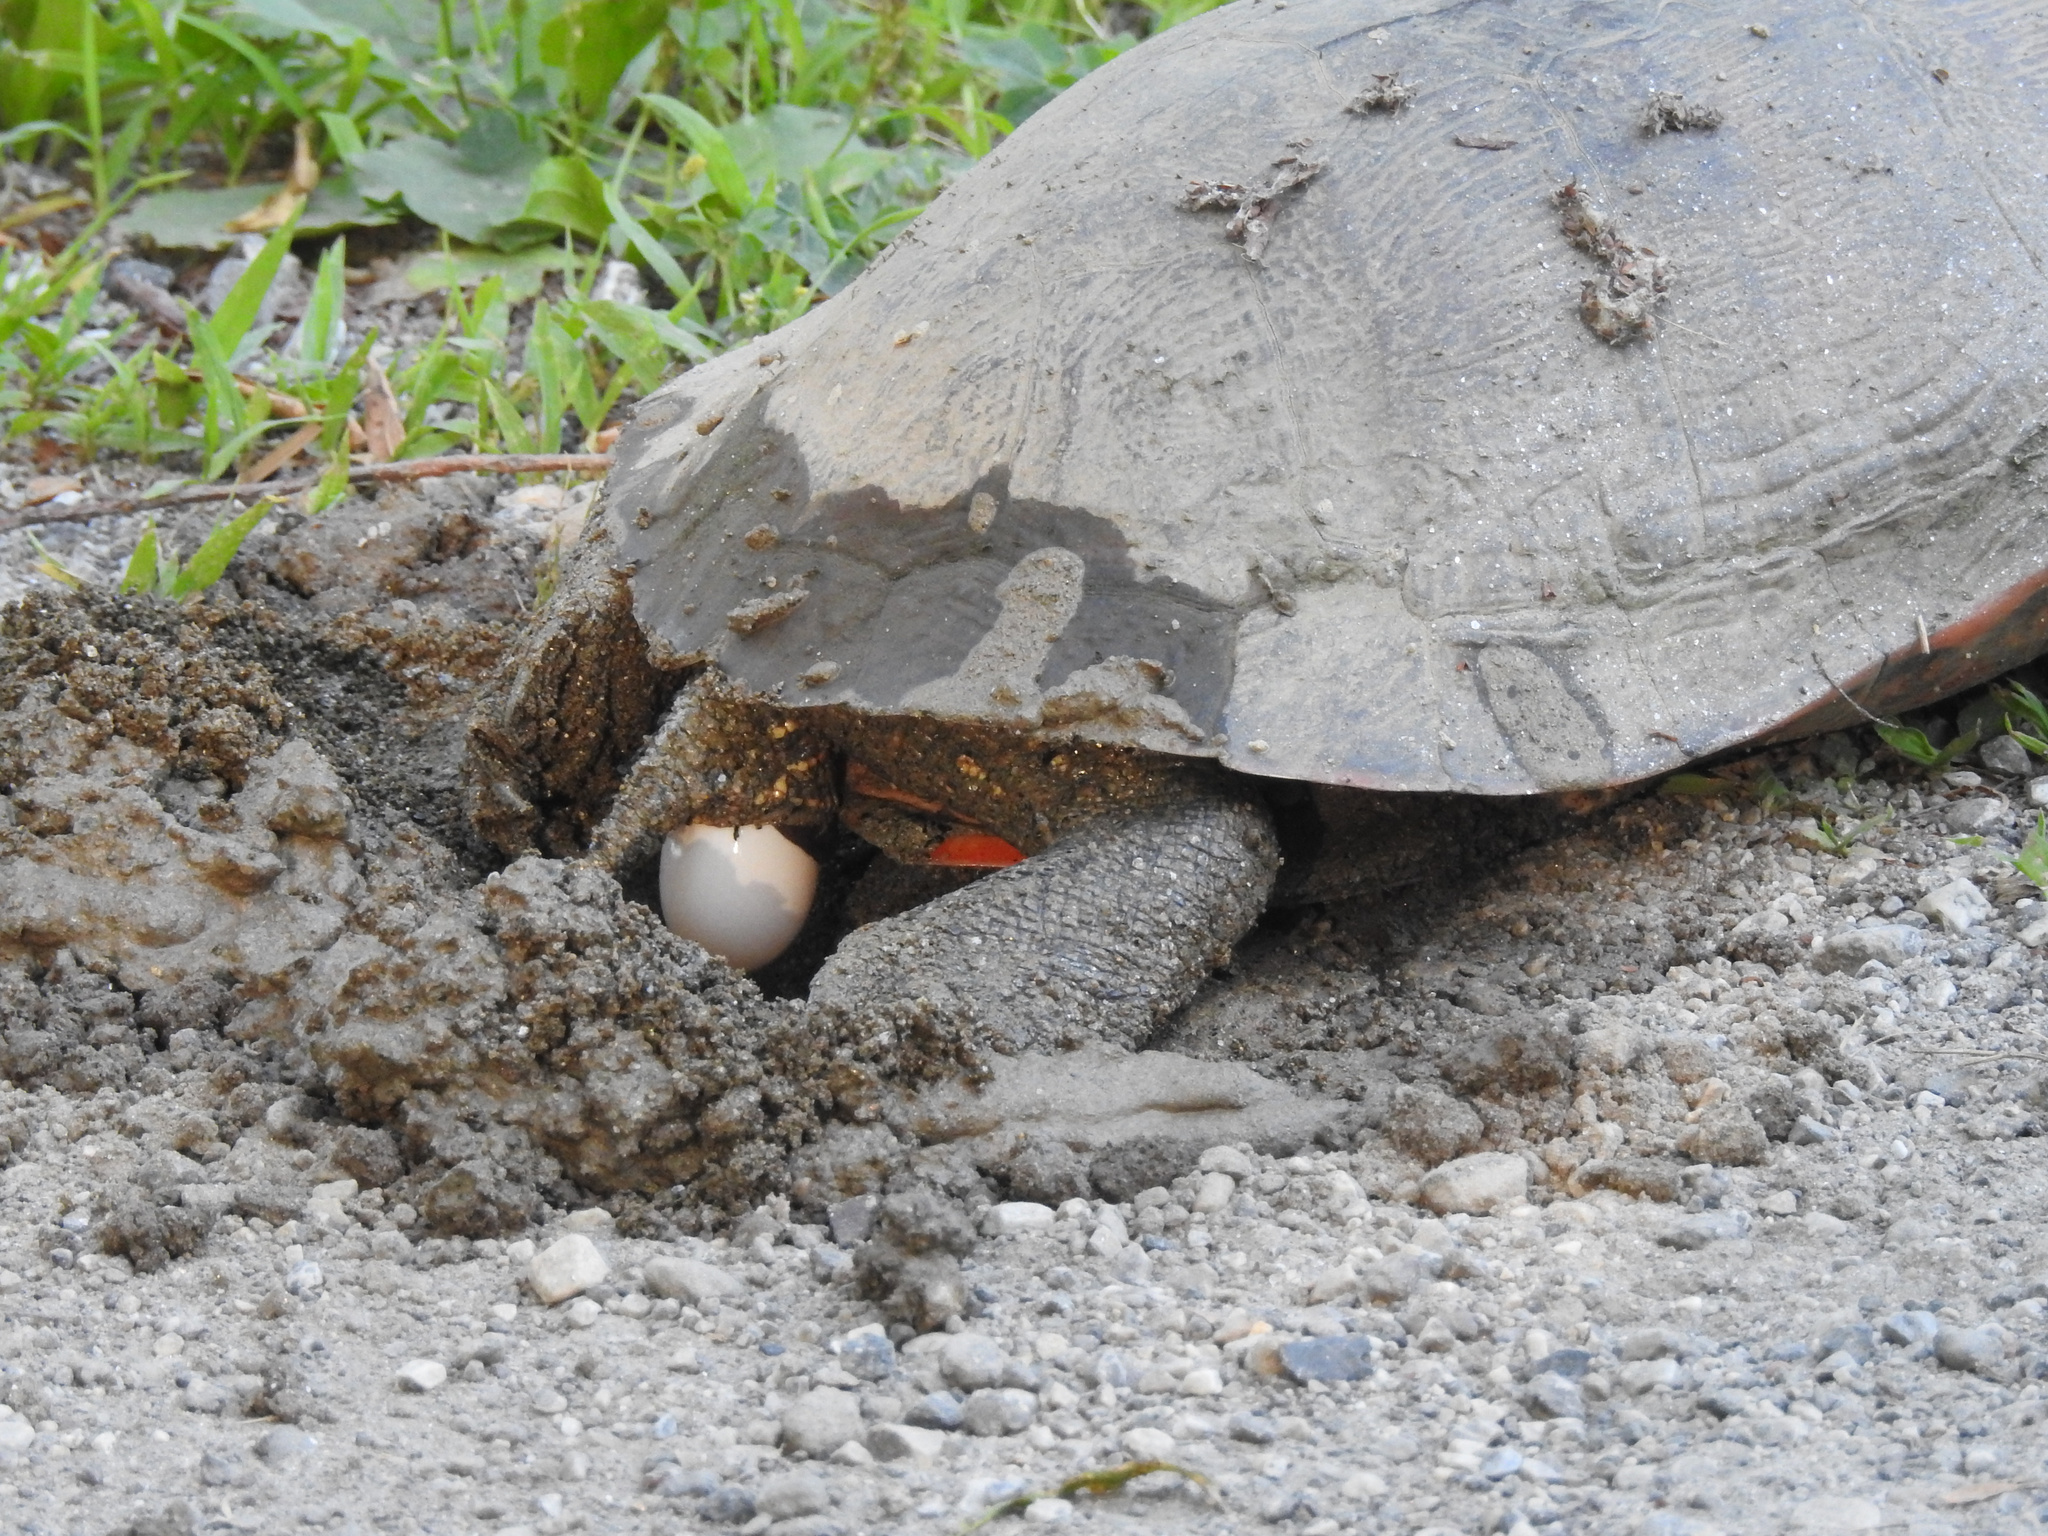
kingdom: Animalia
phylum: Chordata
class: Testudines
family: Emydidae
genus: Pseudemys
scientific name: Pseudemys rubriventris
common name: American red-bellied turtle
